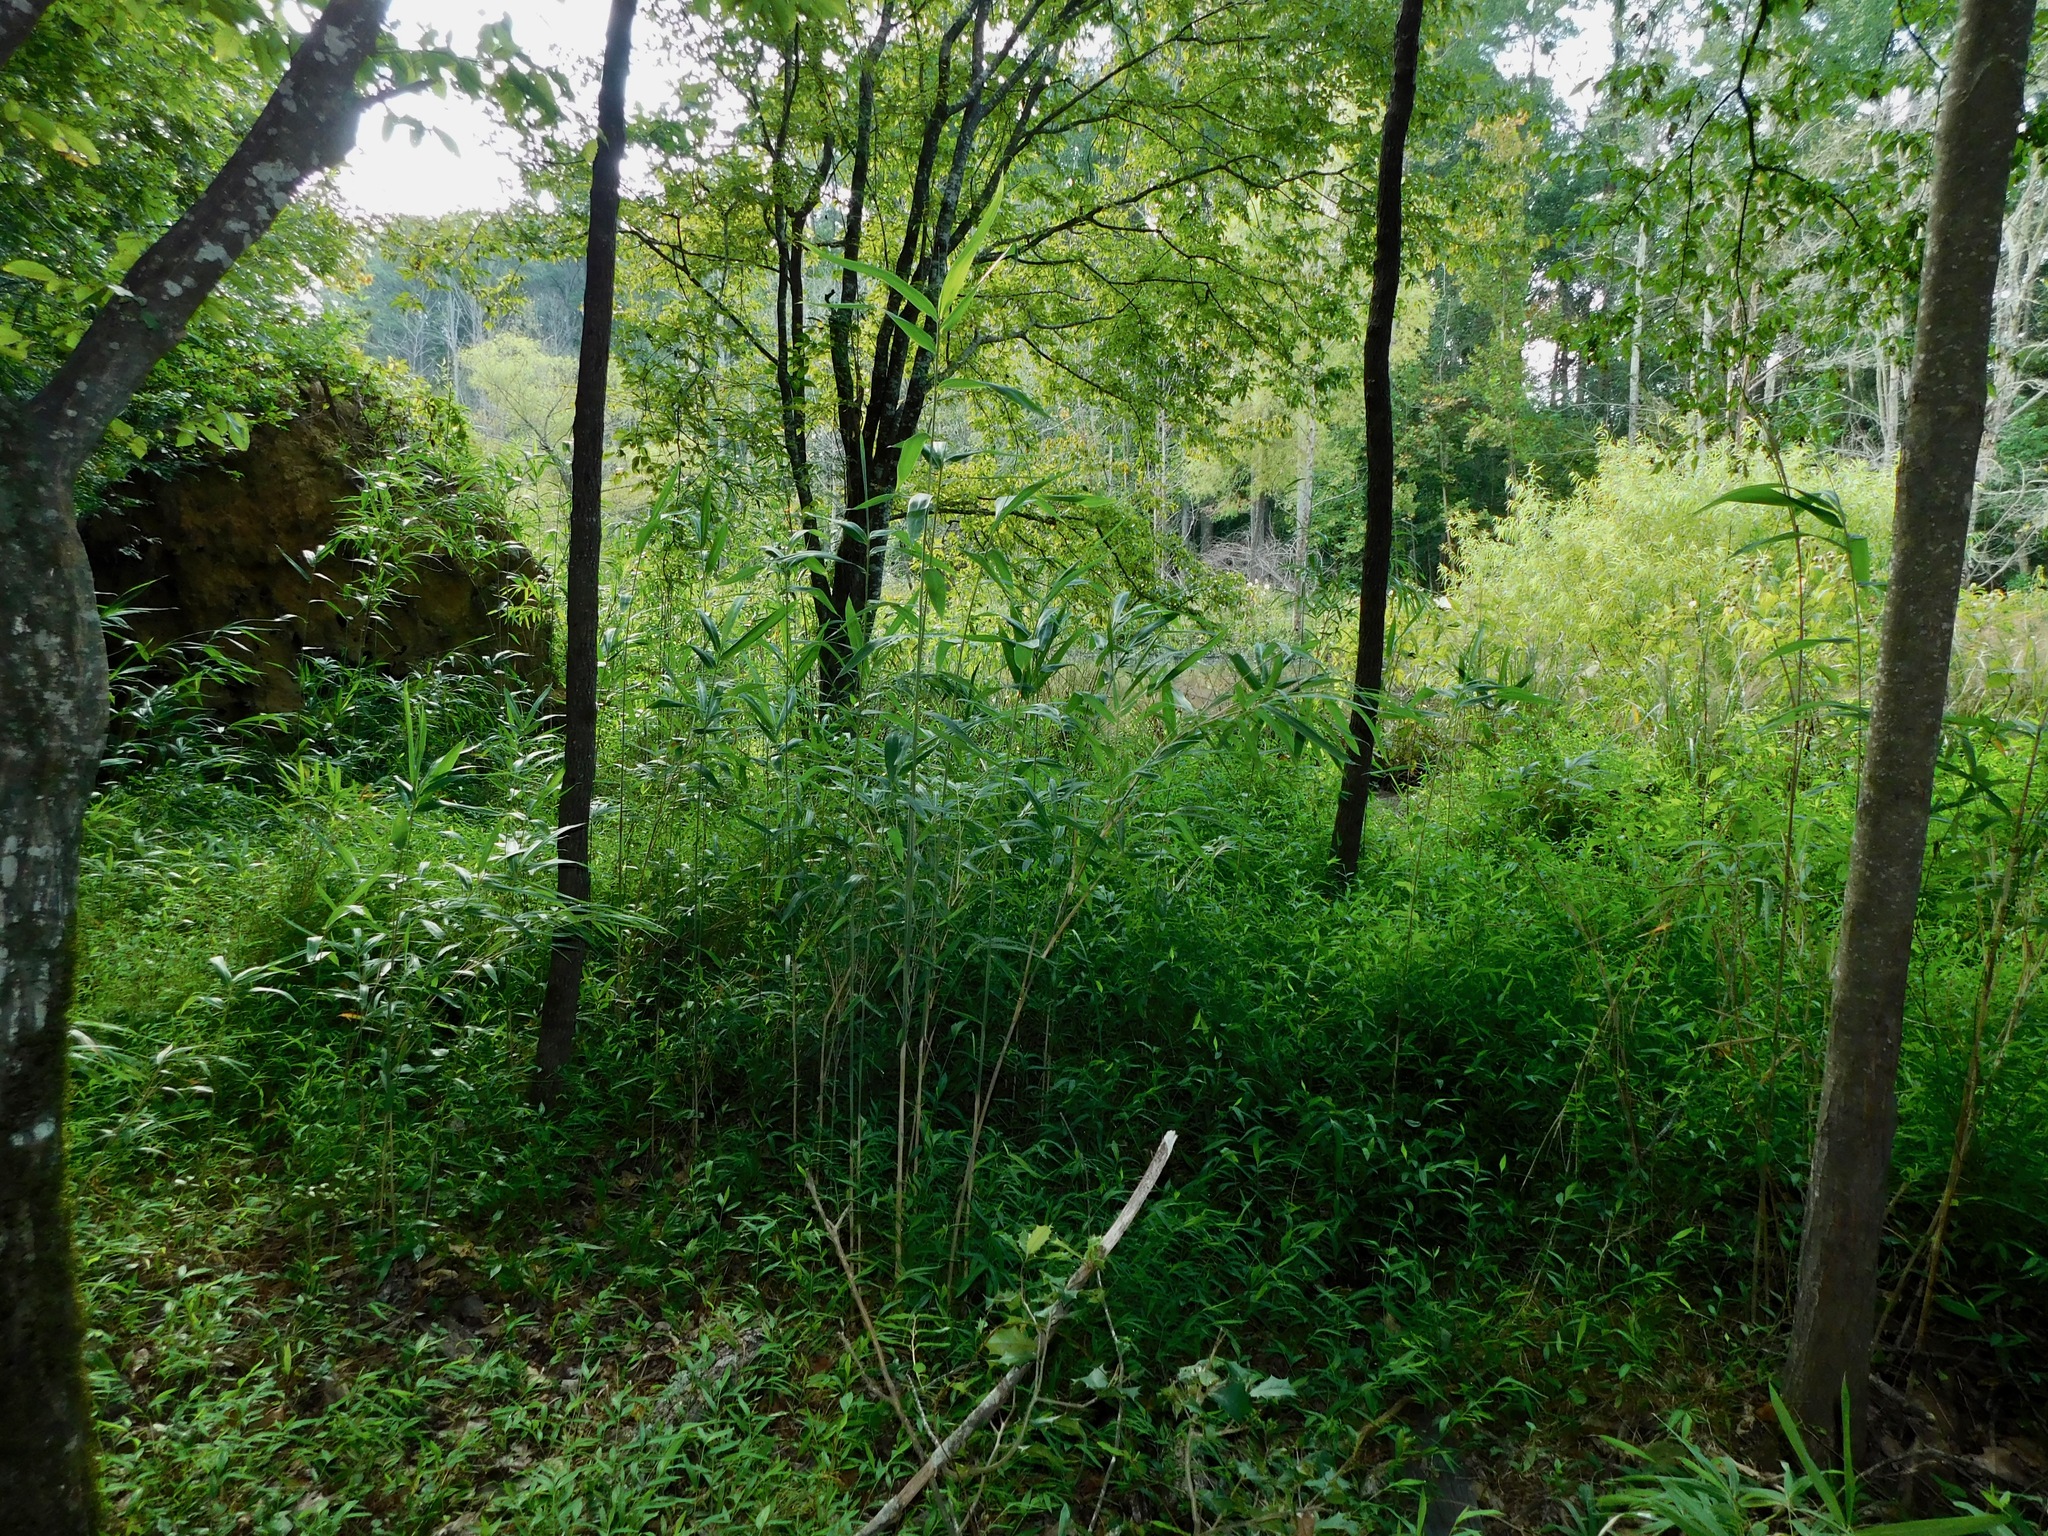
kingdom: Plantae
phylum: Tracheophyta
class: Liliopsida
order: Poales
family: Poaceae
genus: Arundinaria
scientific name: Arundinaria tecta
